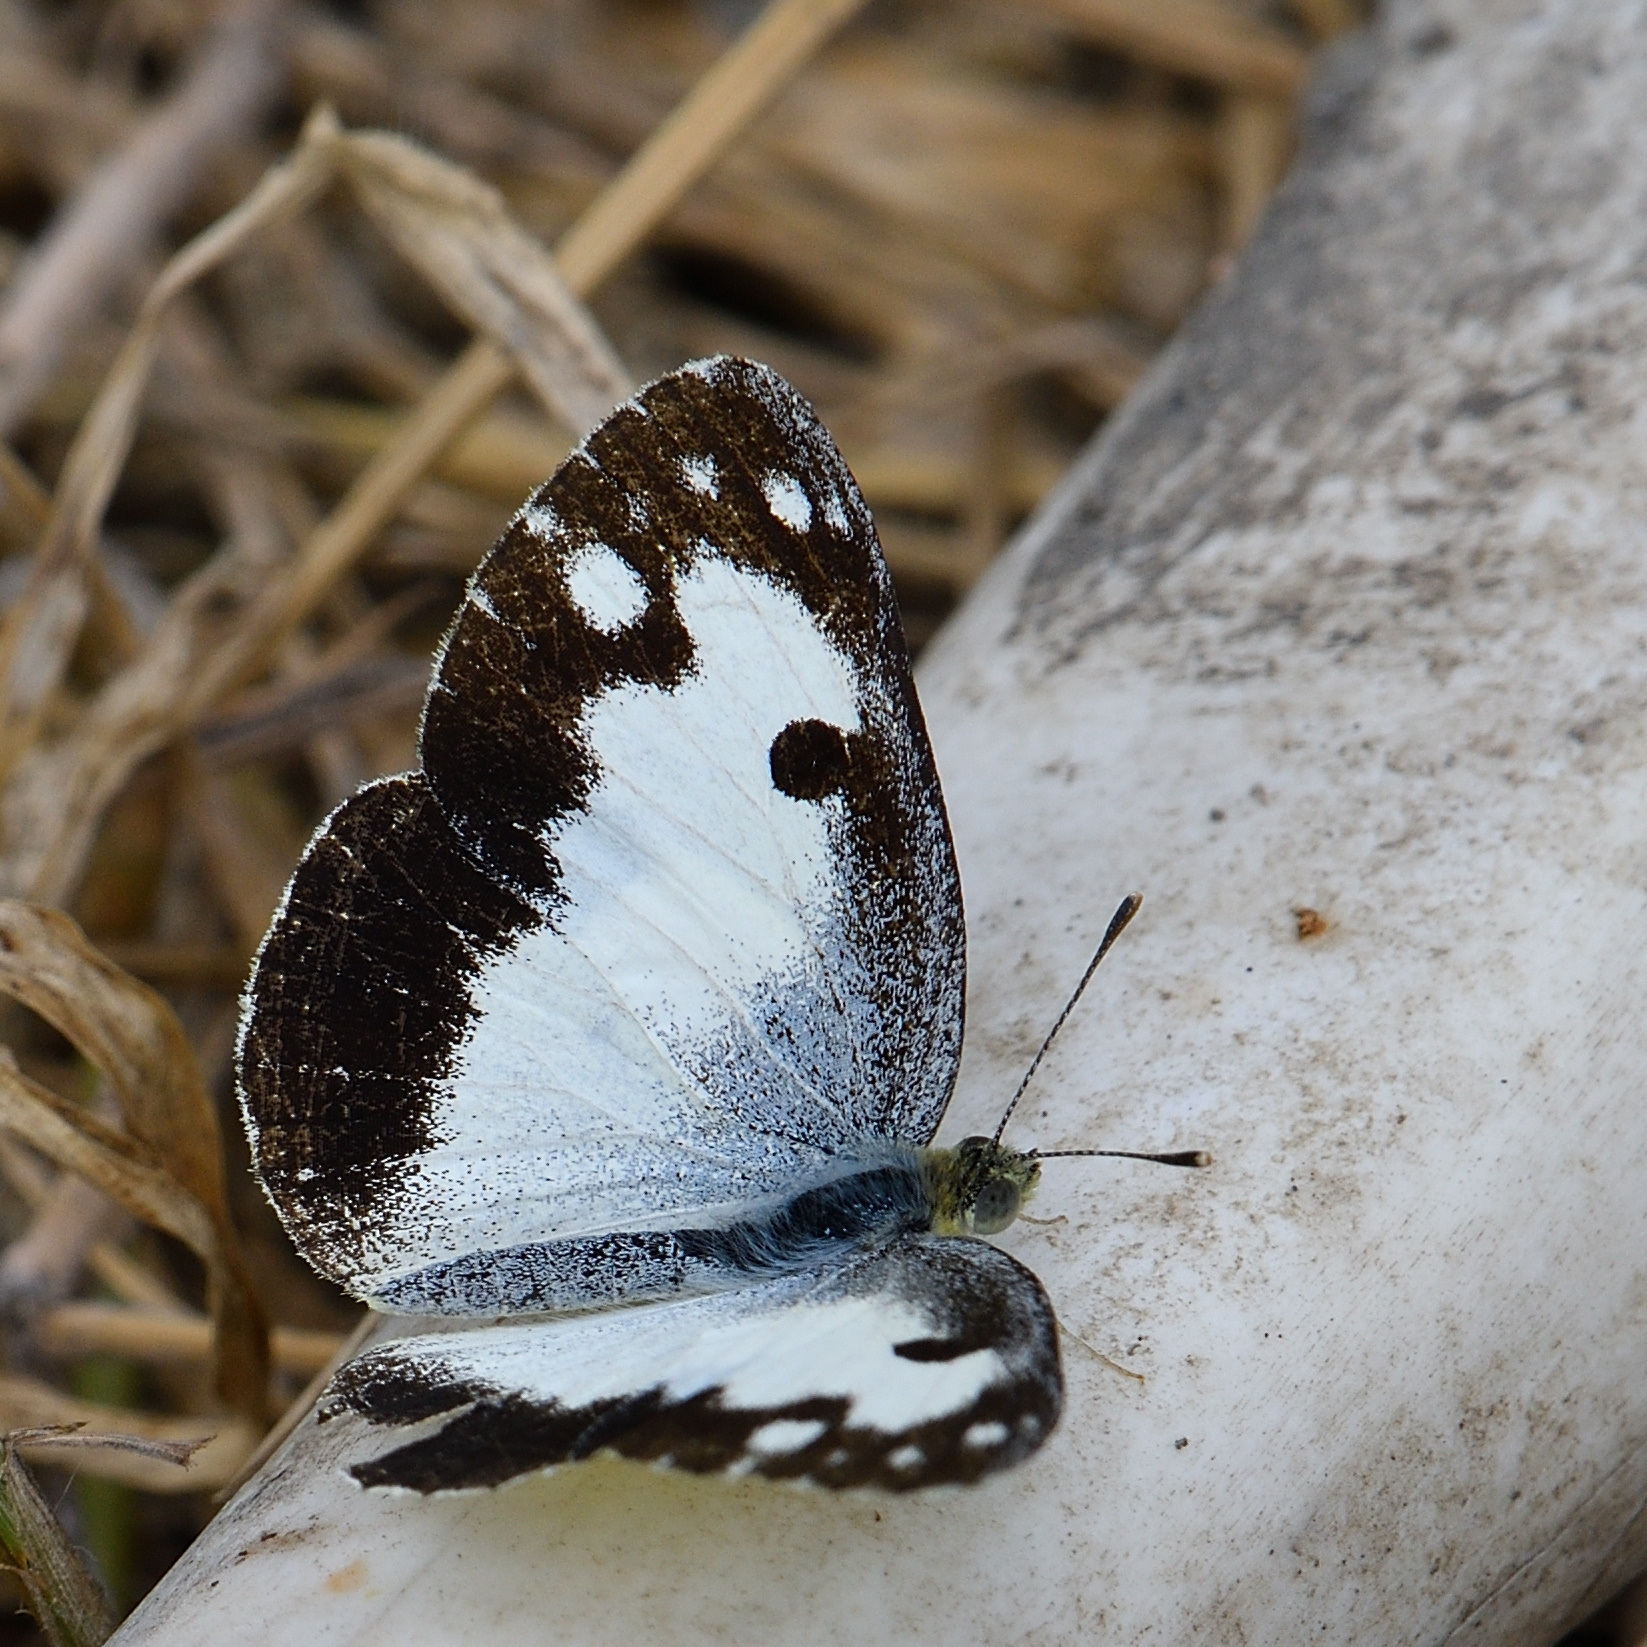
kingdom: Animalia
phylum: Arthropoda
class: Insecta
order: Lepidoptera
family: Pieridae
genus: Colotis
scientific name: Colotis phisadia
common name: Blue spotted arab
